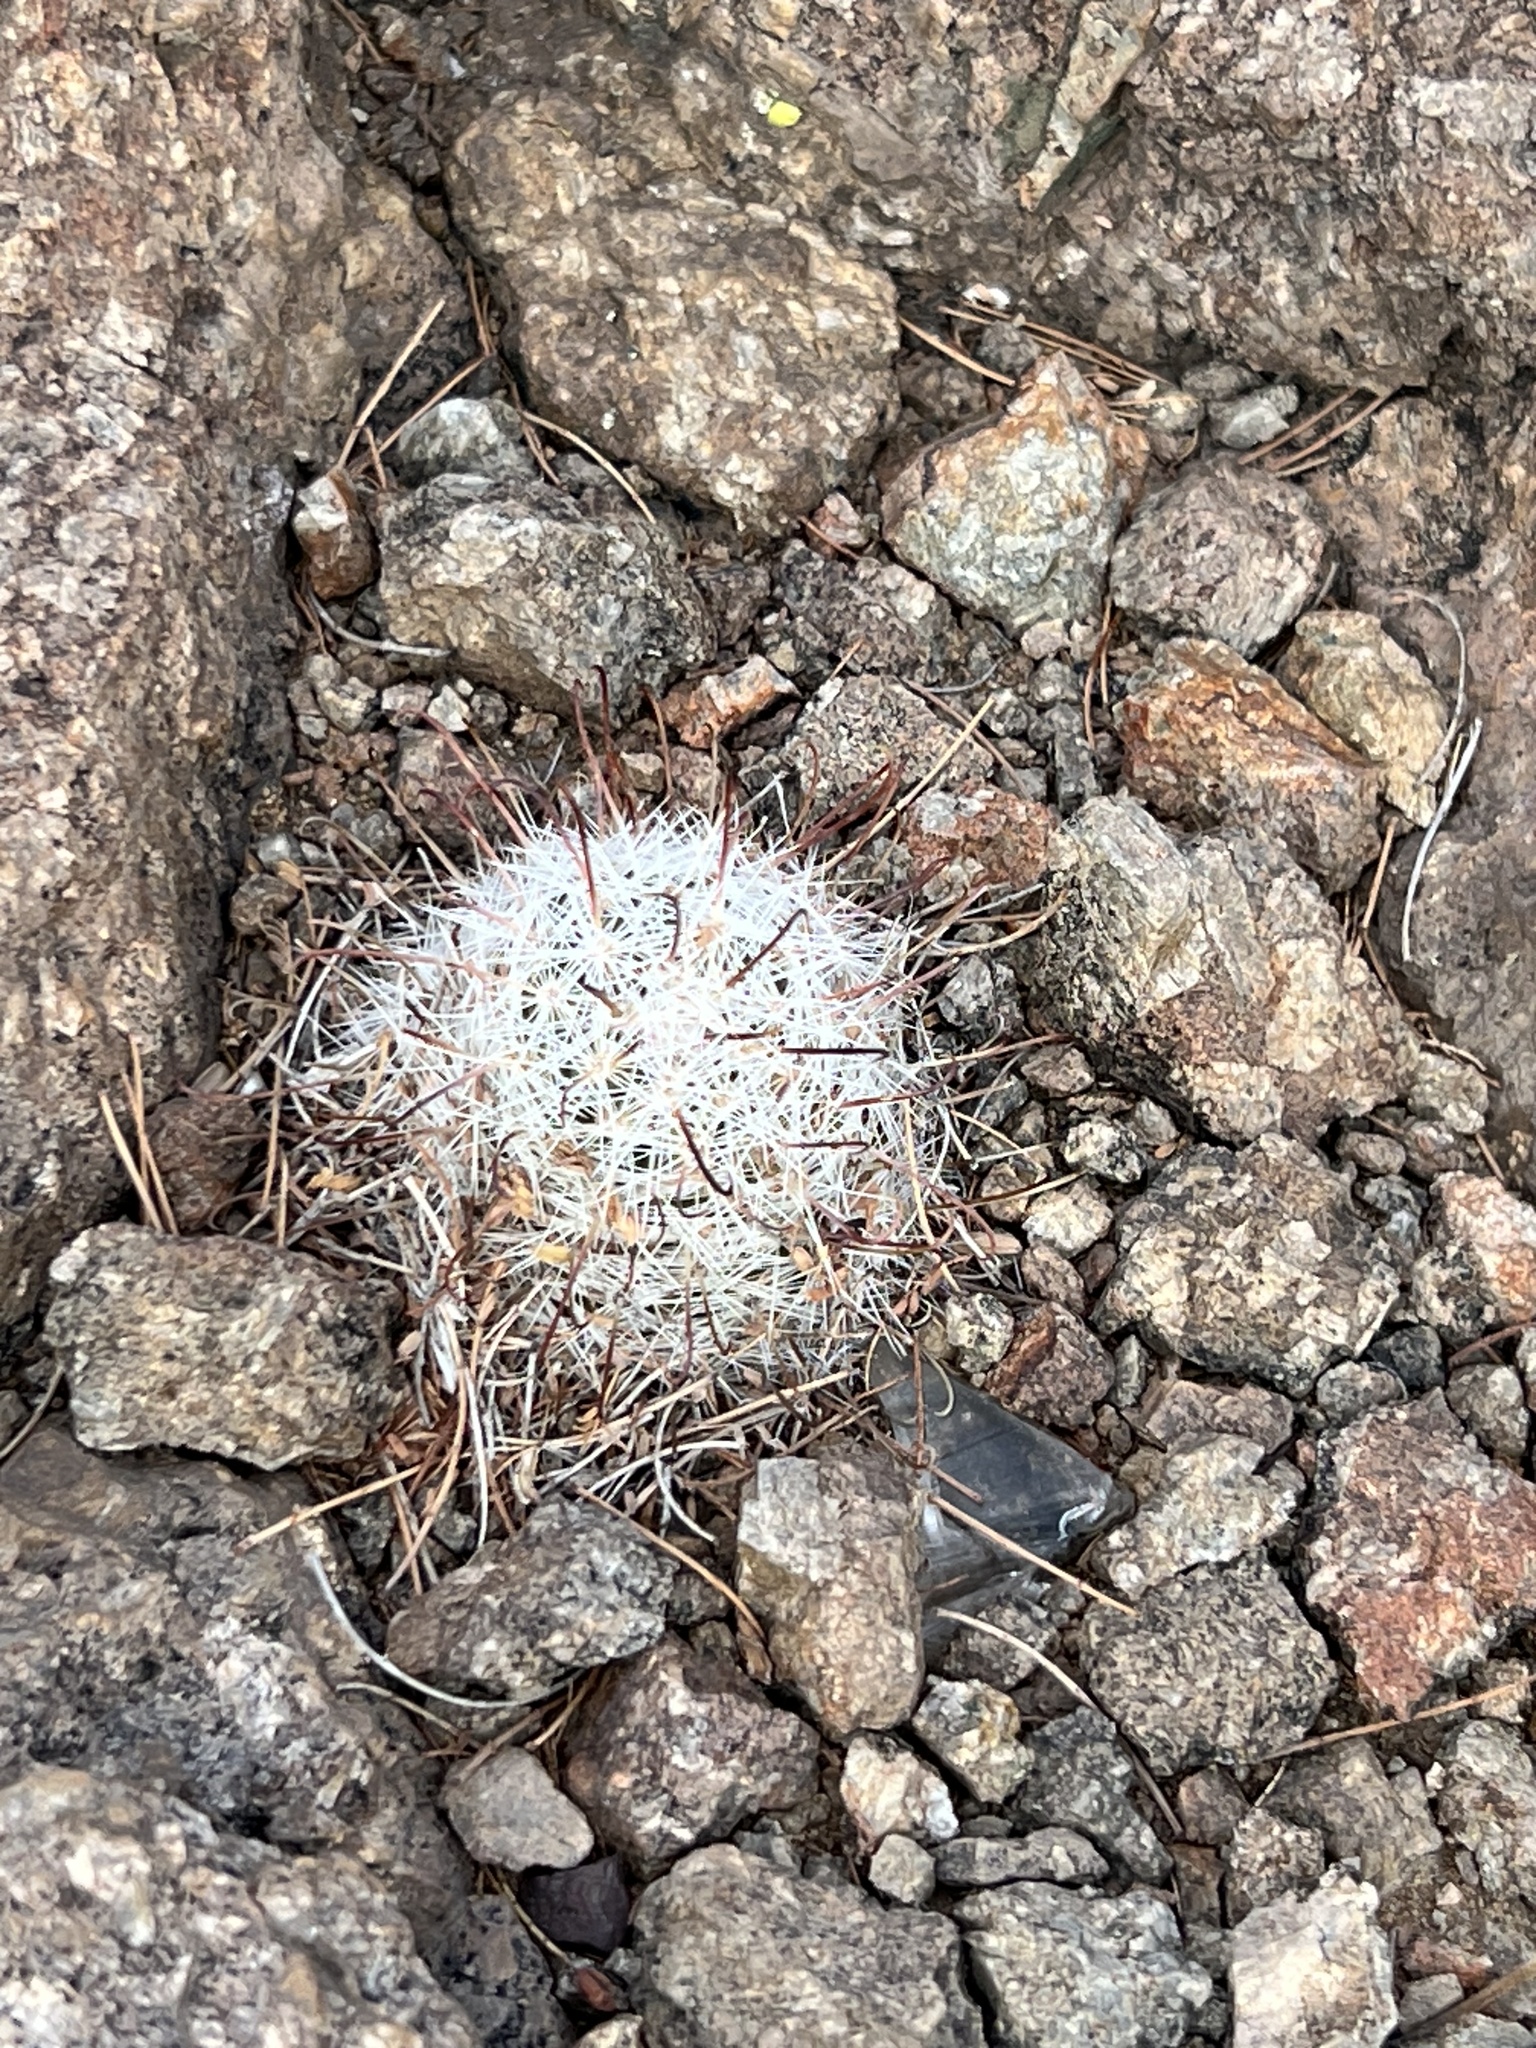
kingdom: Plantae
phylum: Tracheophyta
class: Magnoliopsida
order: Caryophyllales
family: Cactaceae
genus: Cochemiea
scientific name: Cochemiea grahamii
